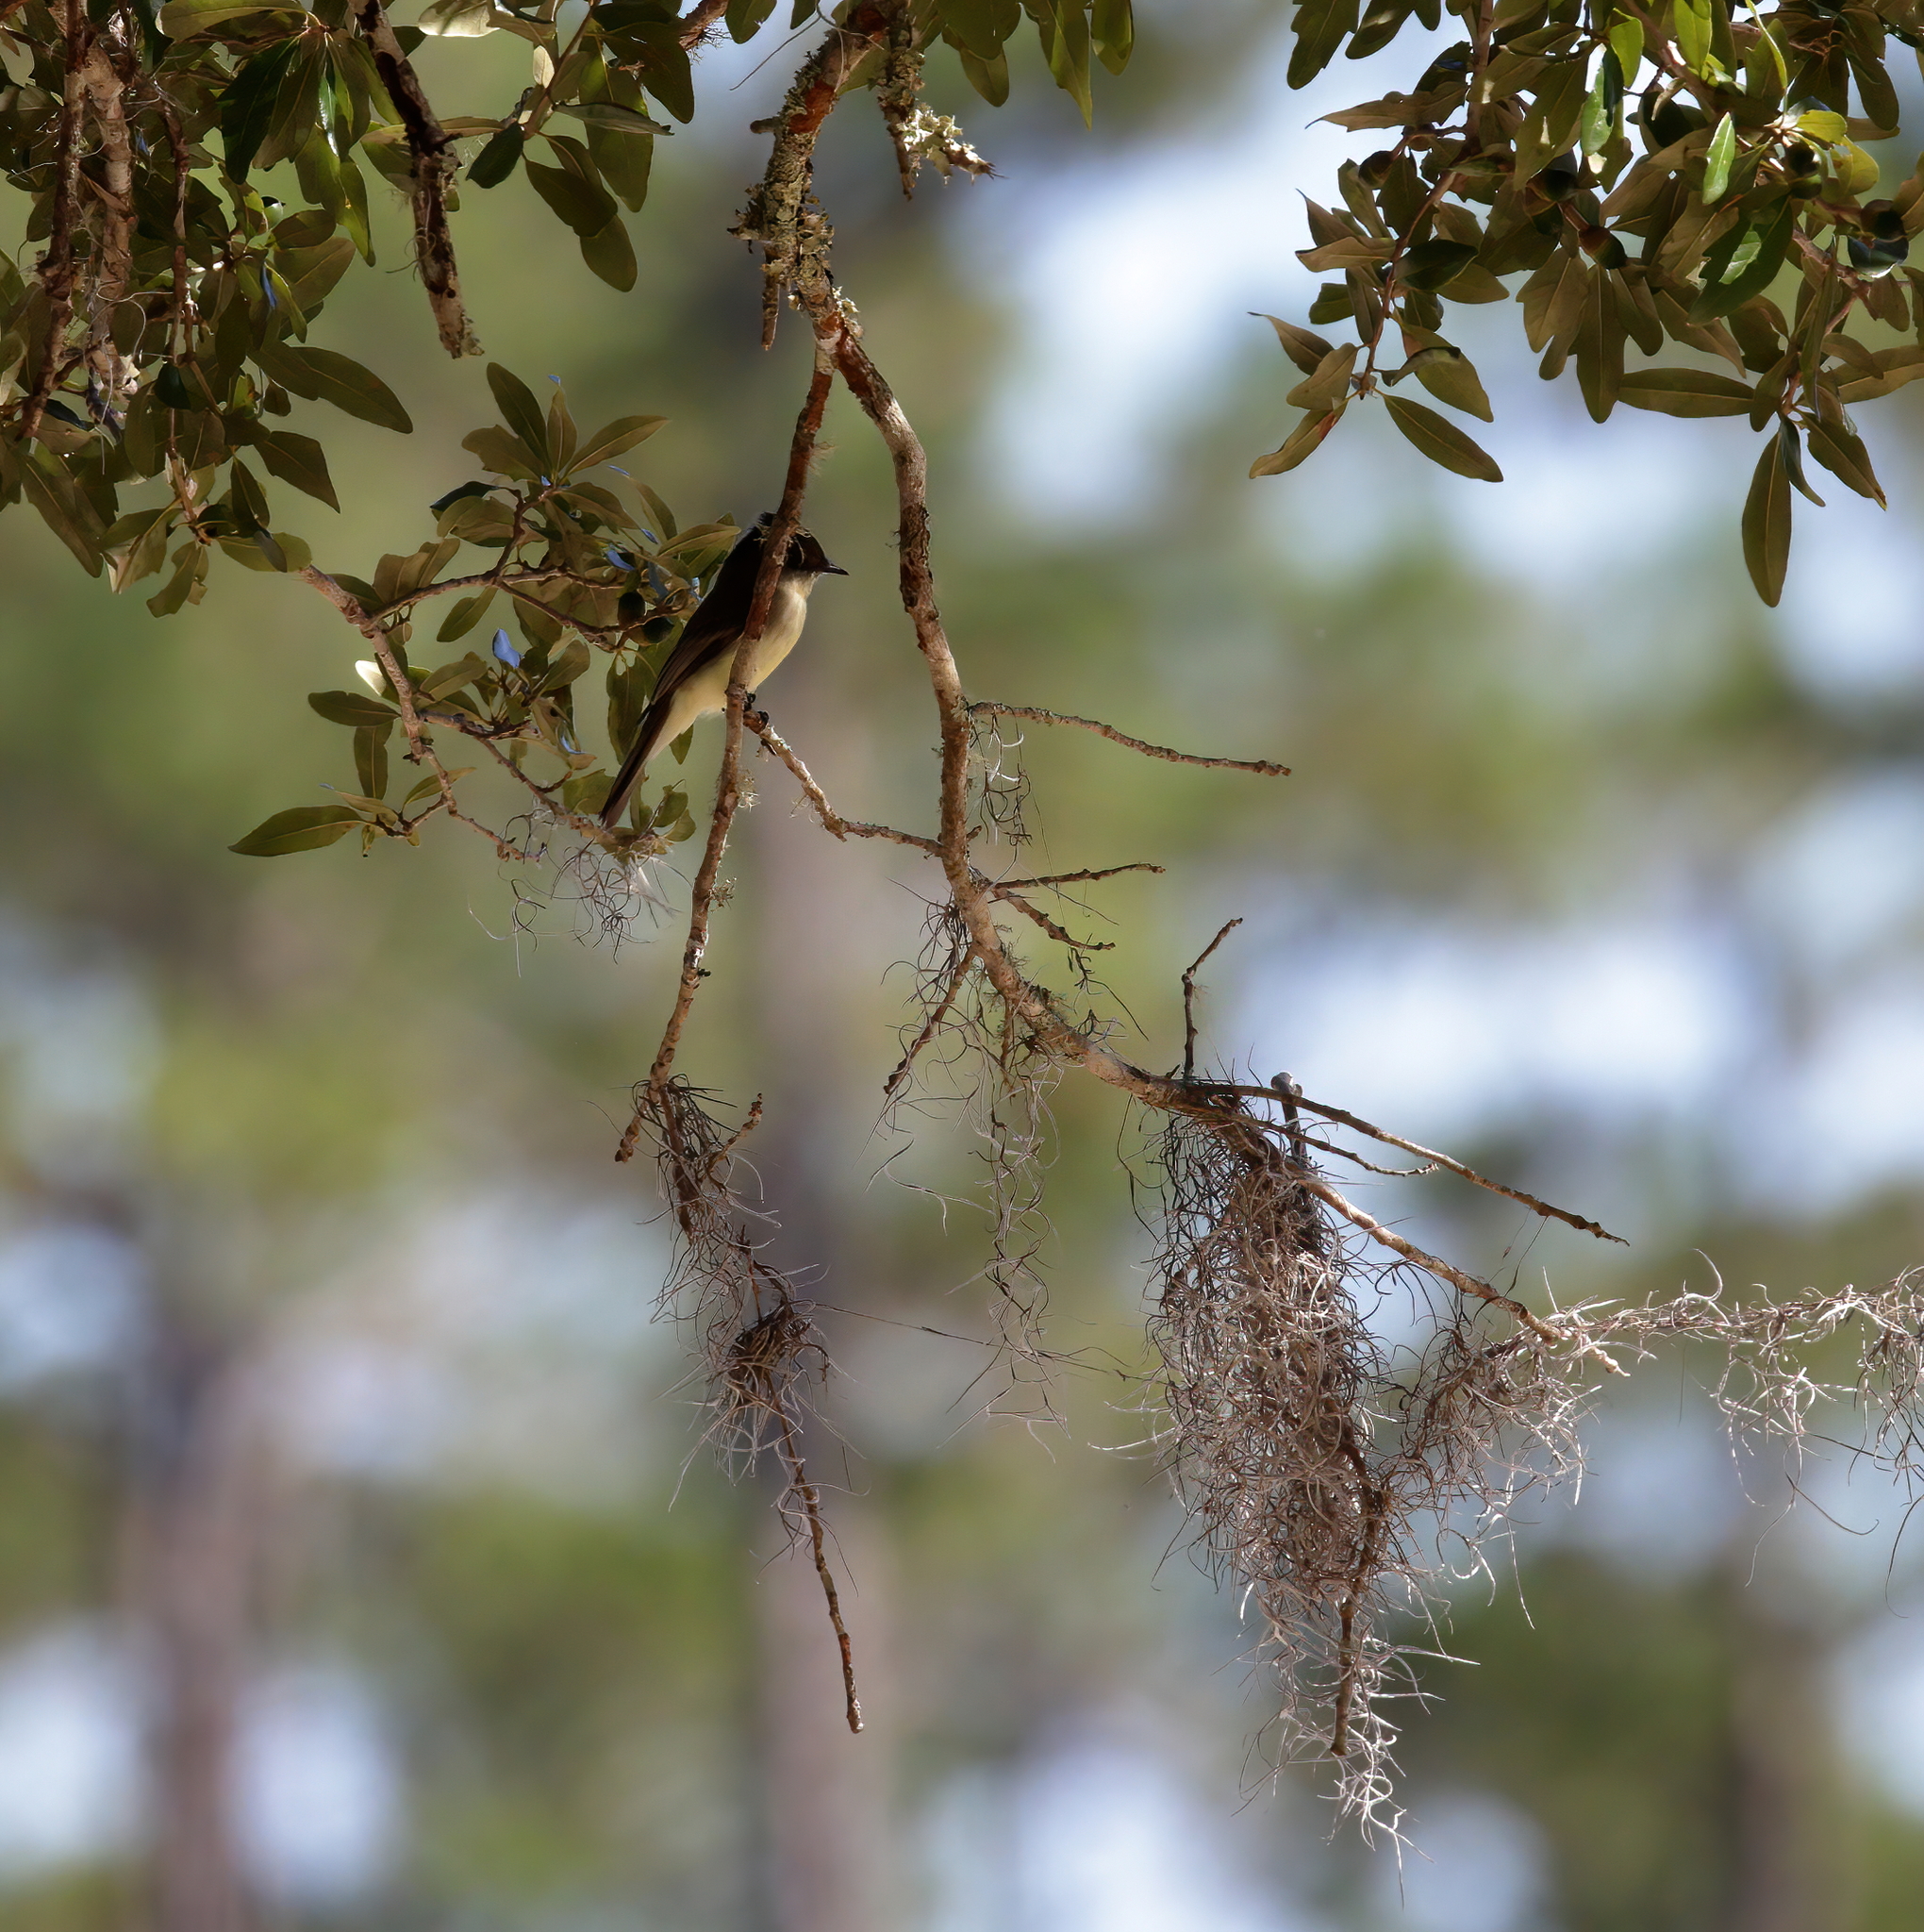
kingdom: Animalia
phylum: Chordata
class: Aves
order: Passeriformes
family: Tyrannidae
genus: Sayornis
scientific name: Sayornis phoebe
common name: Eastern phoebe
